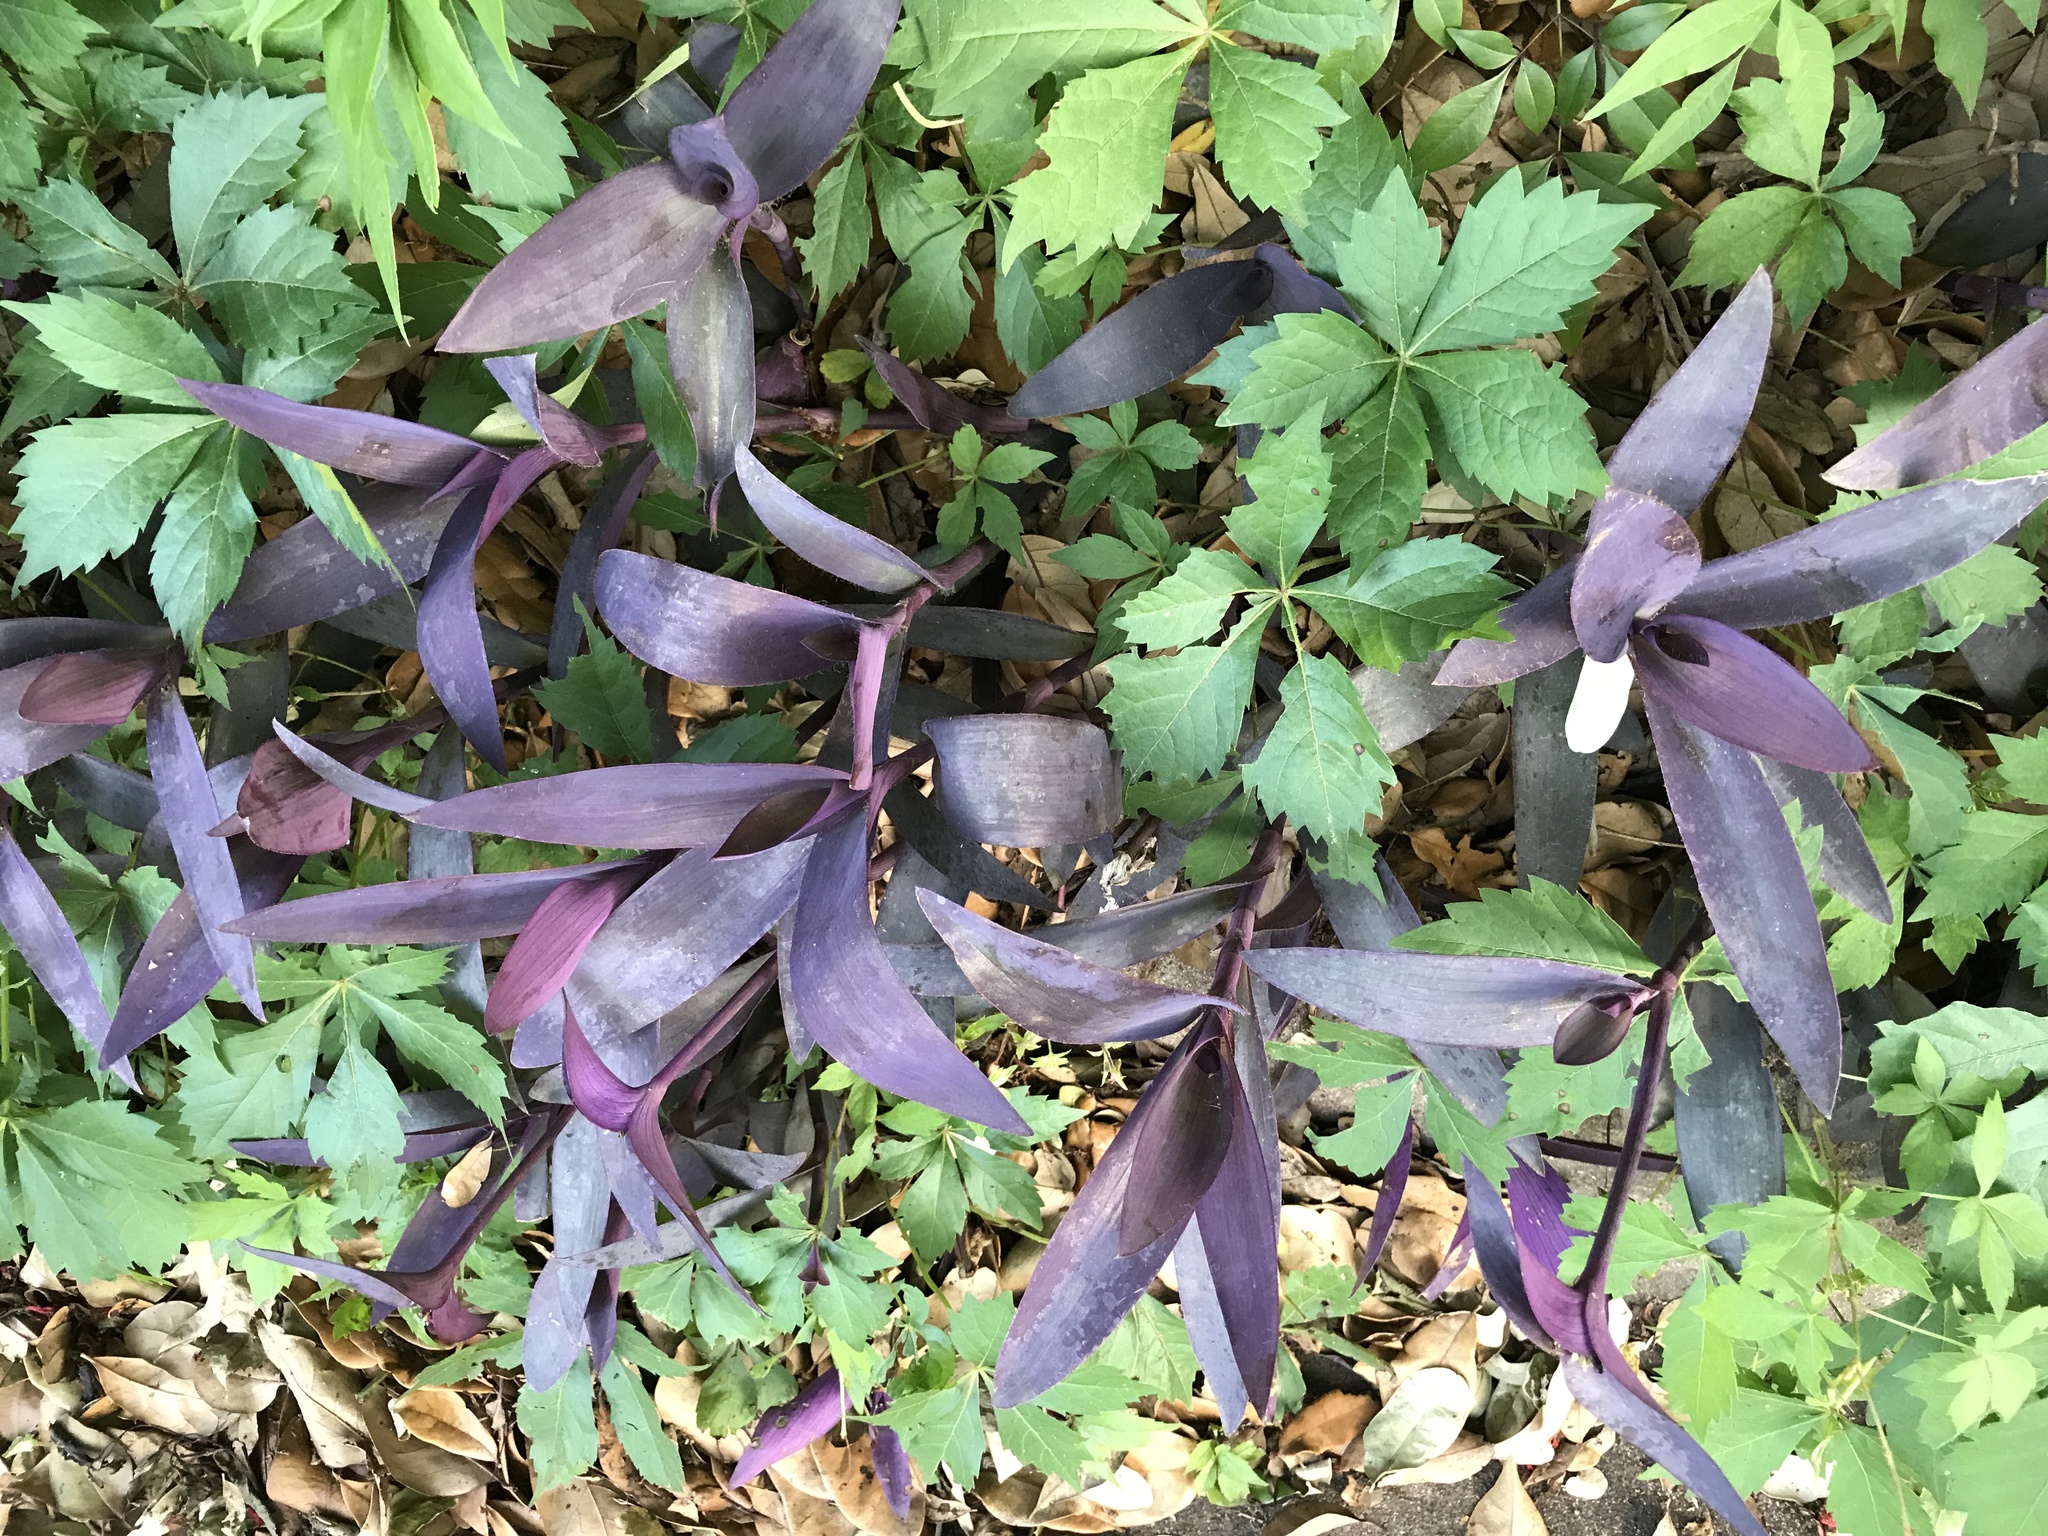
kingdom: Plantae
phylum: Tracheophyta
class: Liliopsida
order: Commelinales
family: Commelinaceae
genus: Tradescantia
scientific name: Tradescantia pallida
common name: Purpleheart
